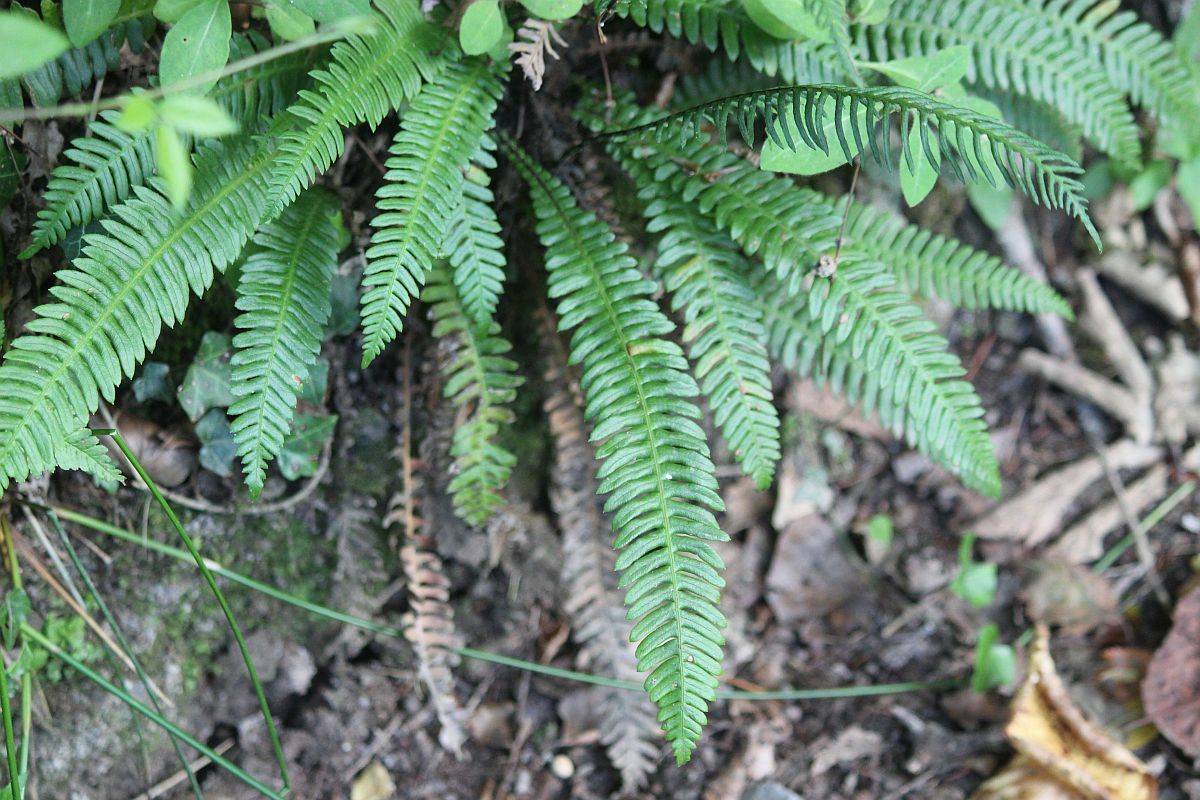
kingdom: Plantae
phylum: Tracheophyta
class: Polypodiopsida
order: Polypodiales
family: Blechnaceae
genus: Struthiopteris
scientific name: Struthiopteris spicant
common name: Deer fern
